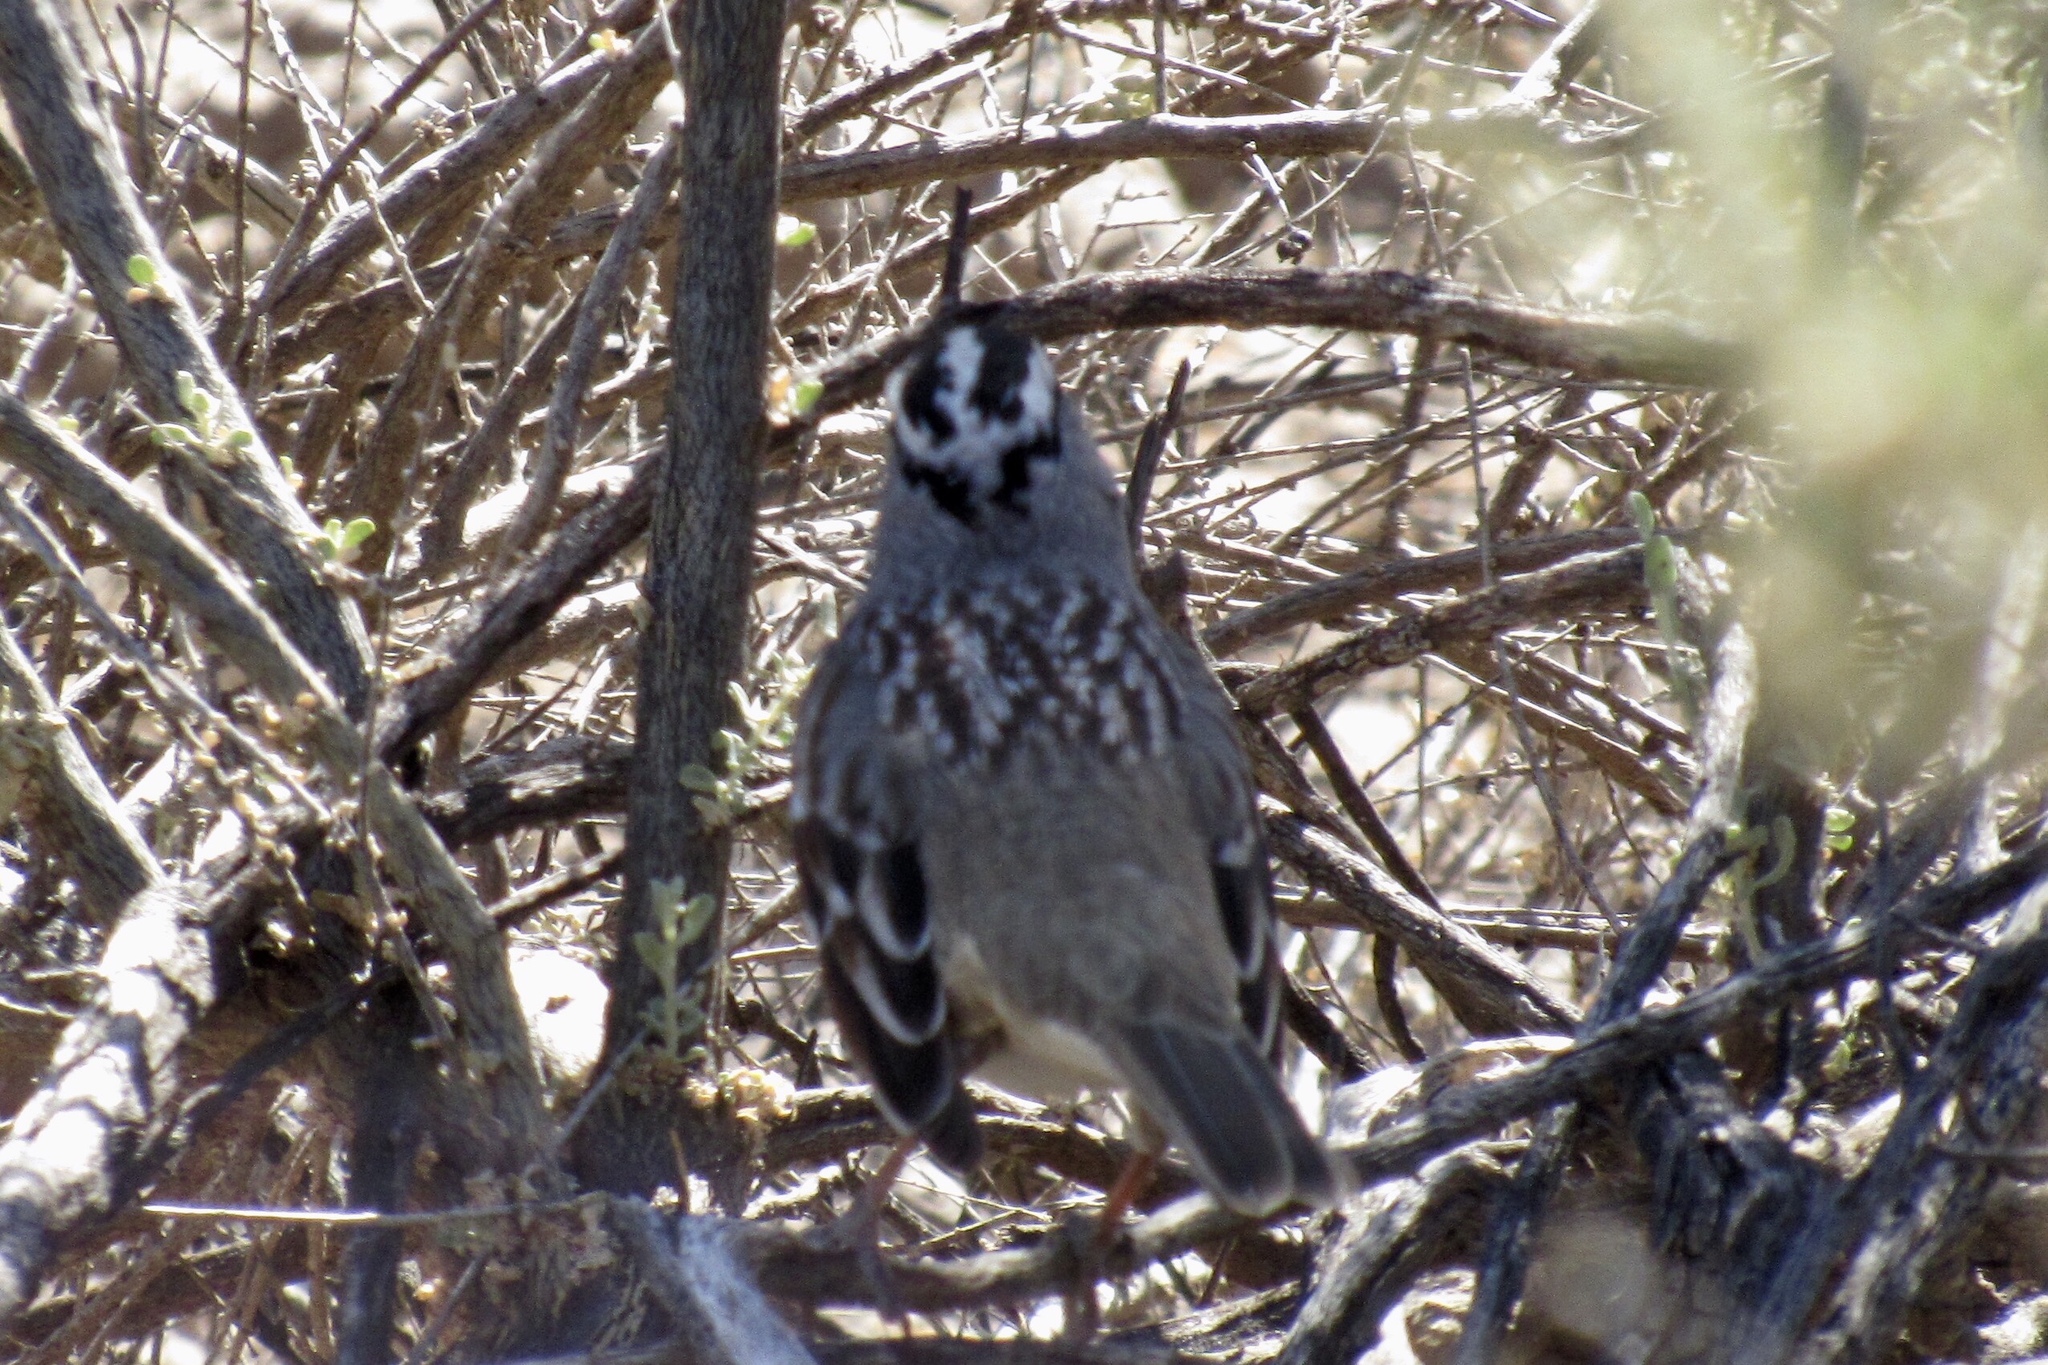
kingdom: Animalia
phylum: Chordata
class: Aves
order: Passeriformes
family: Passerellidae
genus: Zonotrichia
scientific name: Zonotrichia leucophrys
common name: White-crowned sparrow
